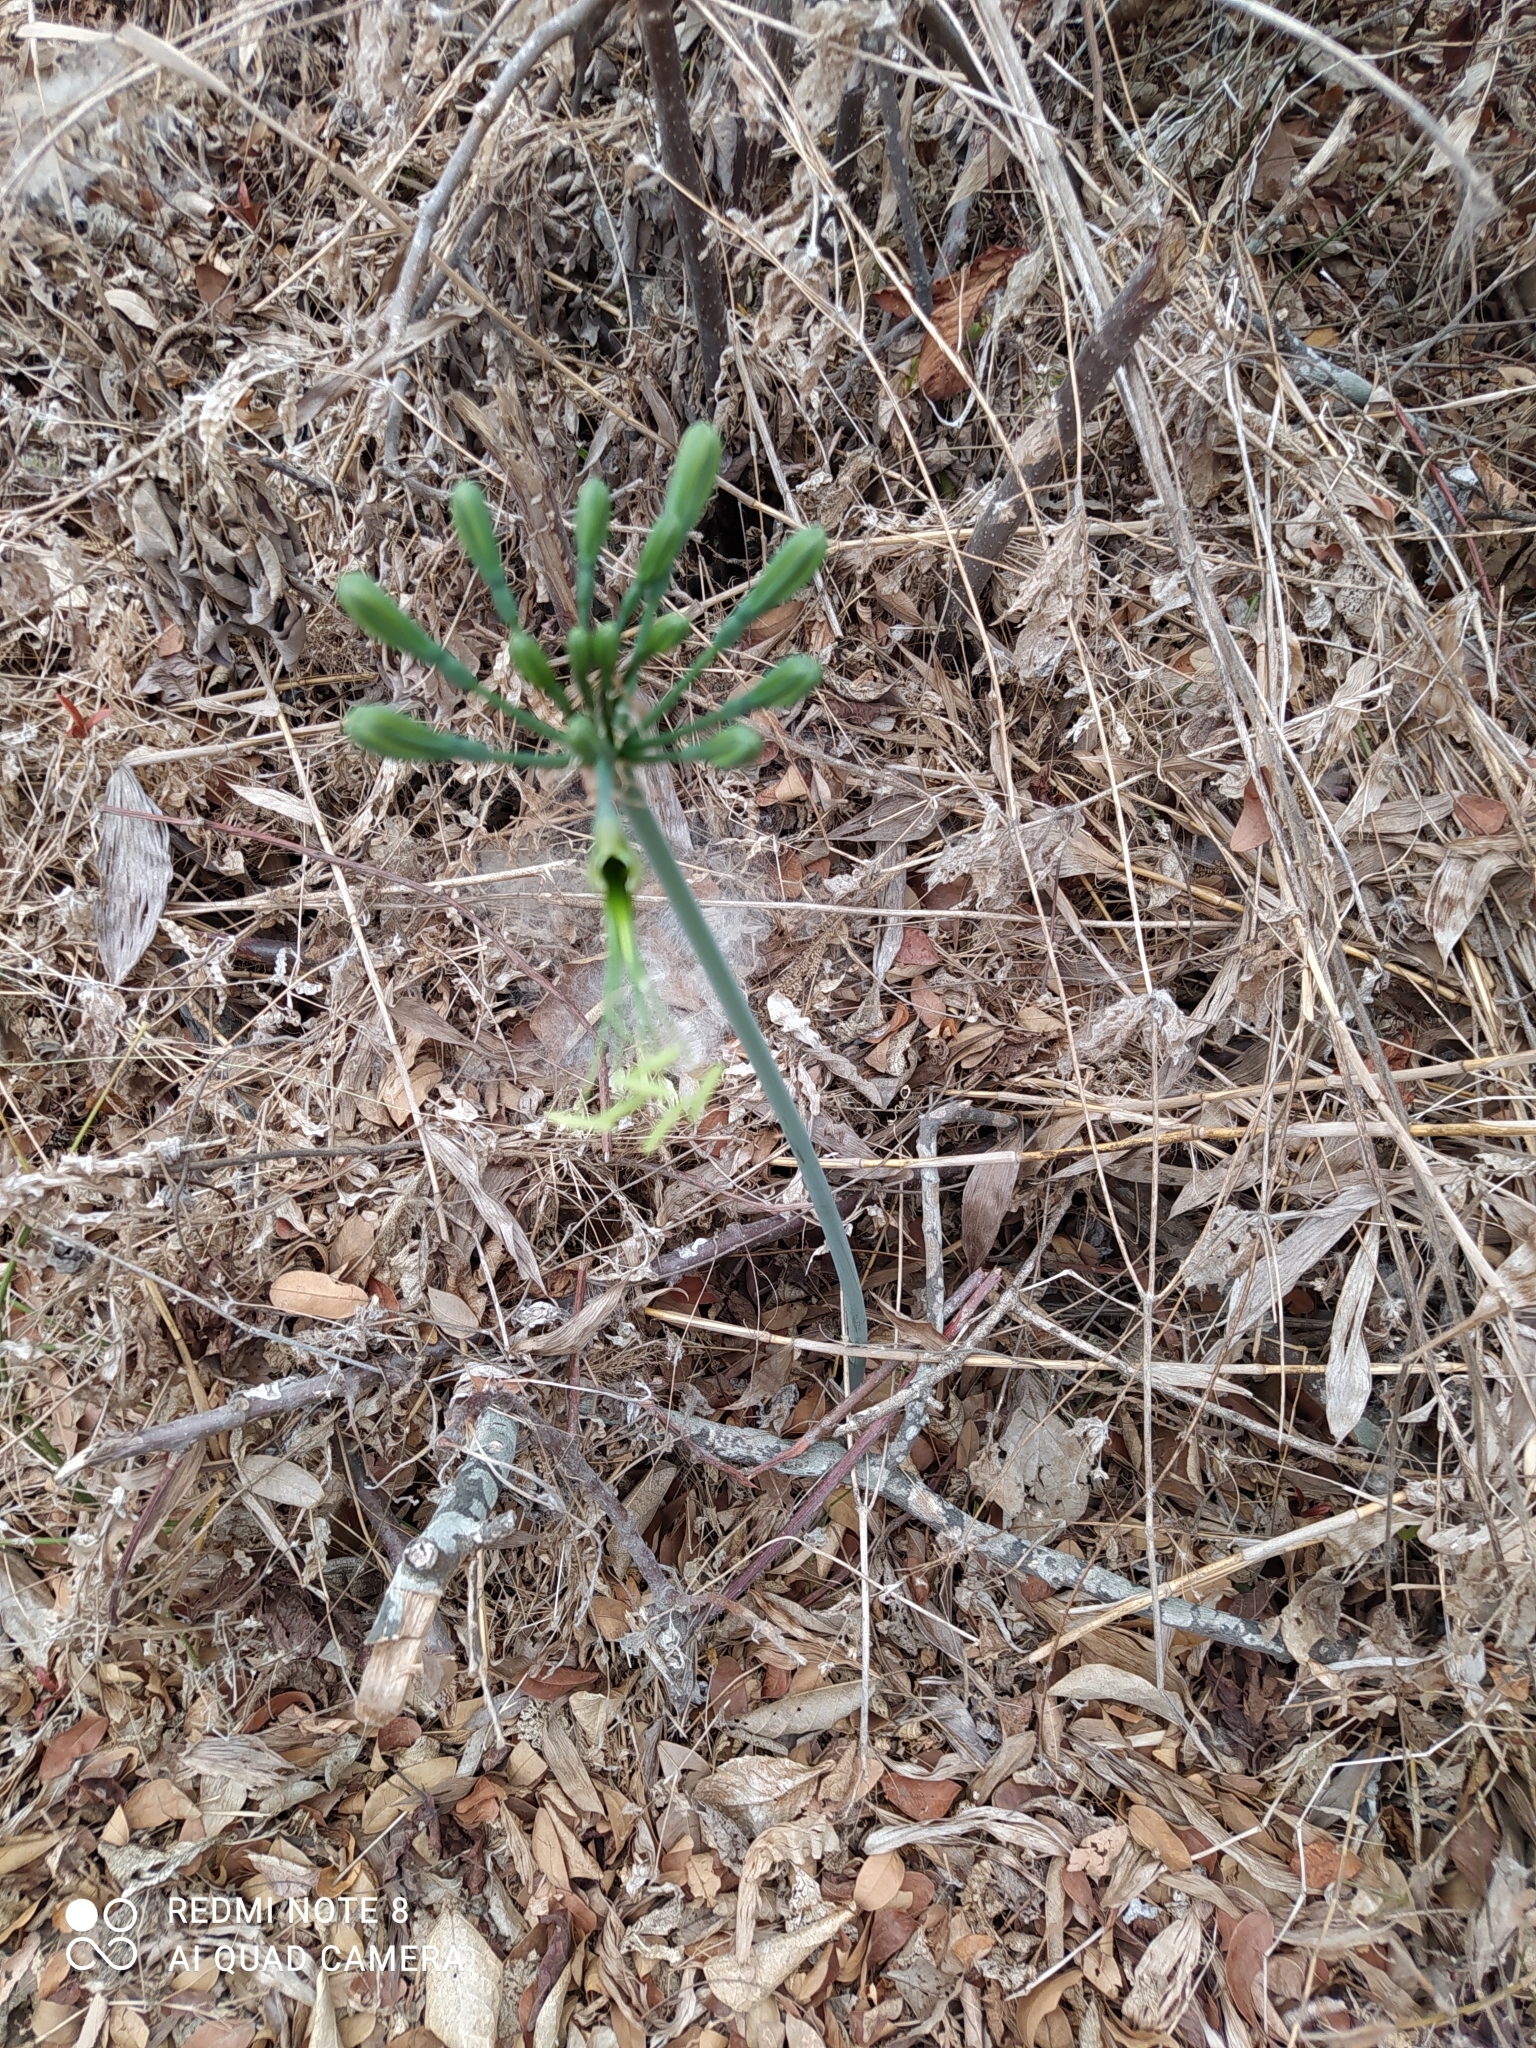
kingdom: Plantae
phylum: Tracheophyta
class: Liliopsida
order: Asparagales
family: Amaryllidaceae
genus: Eucrosia
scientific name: Eucrosia eucrosioides
